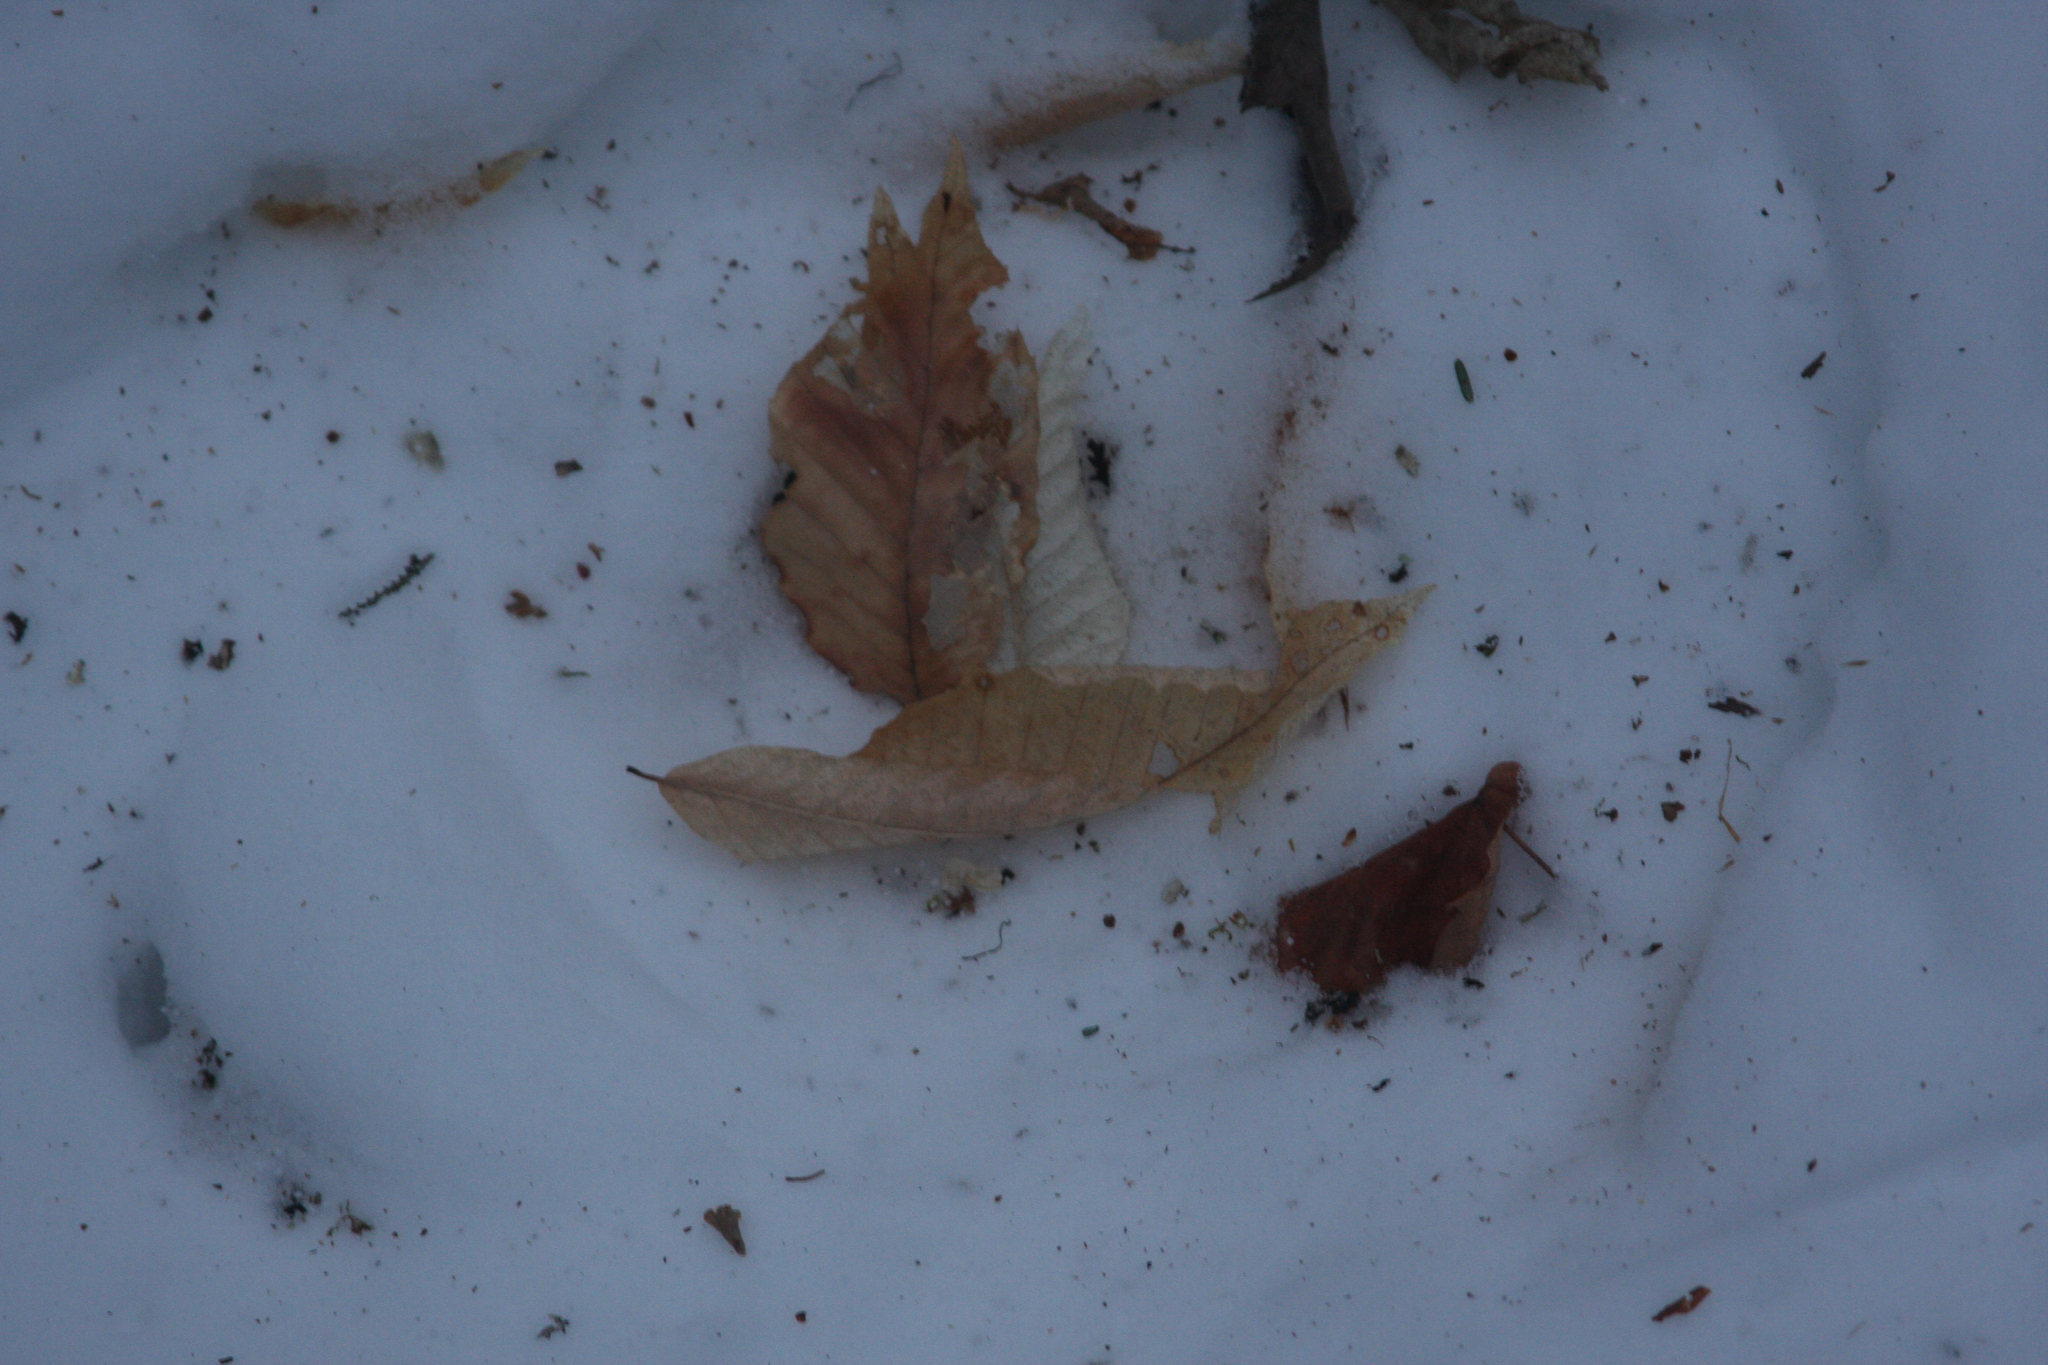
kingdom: Plantae
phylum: Tracheophyta
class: Magnoliopsida
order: Fagales
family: Fagaceae
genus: Fagus
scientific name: Fagus grandifolia
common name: American beech
